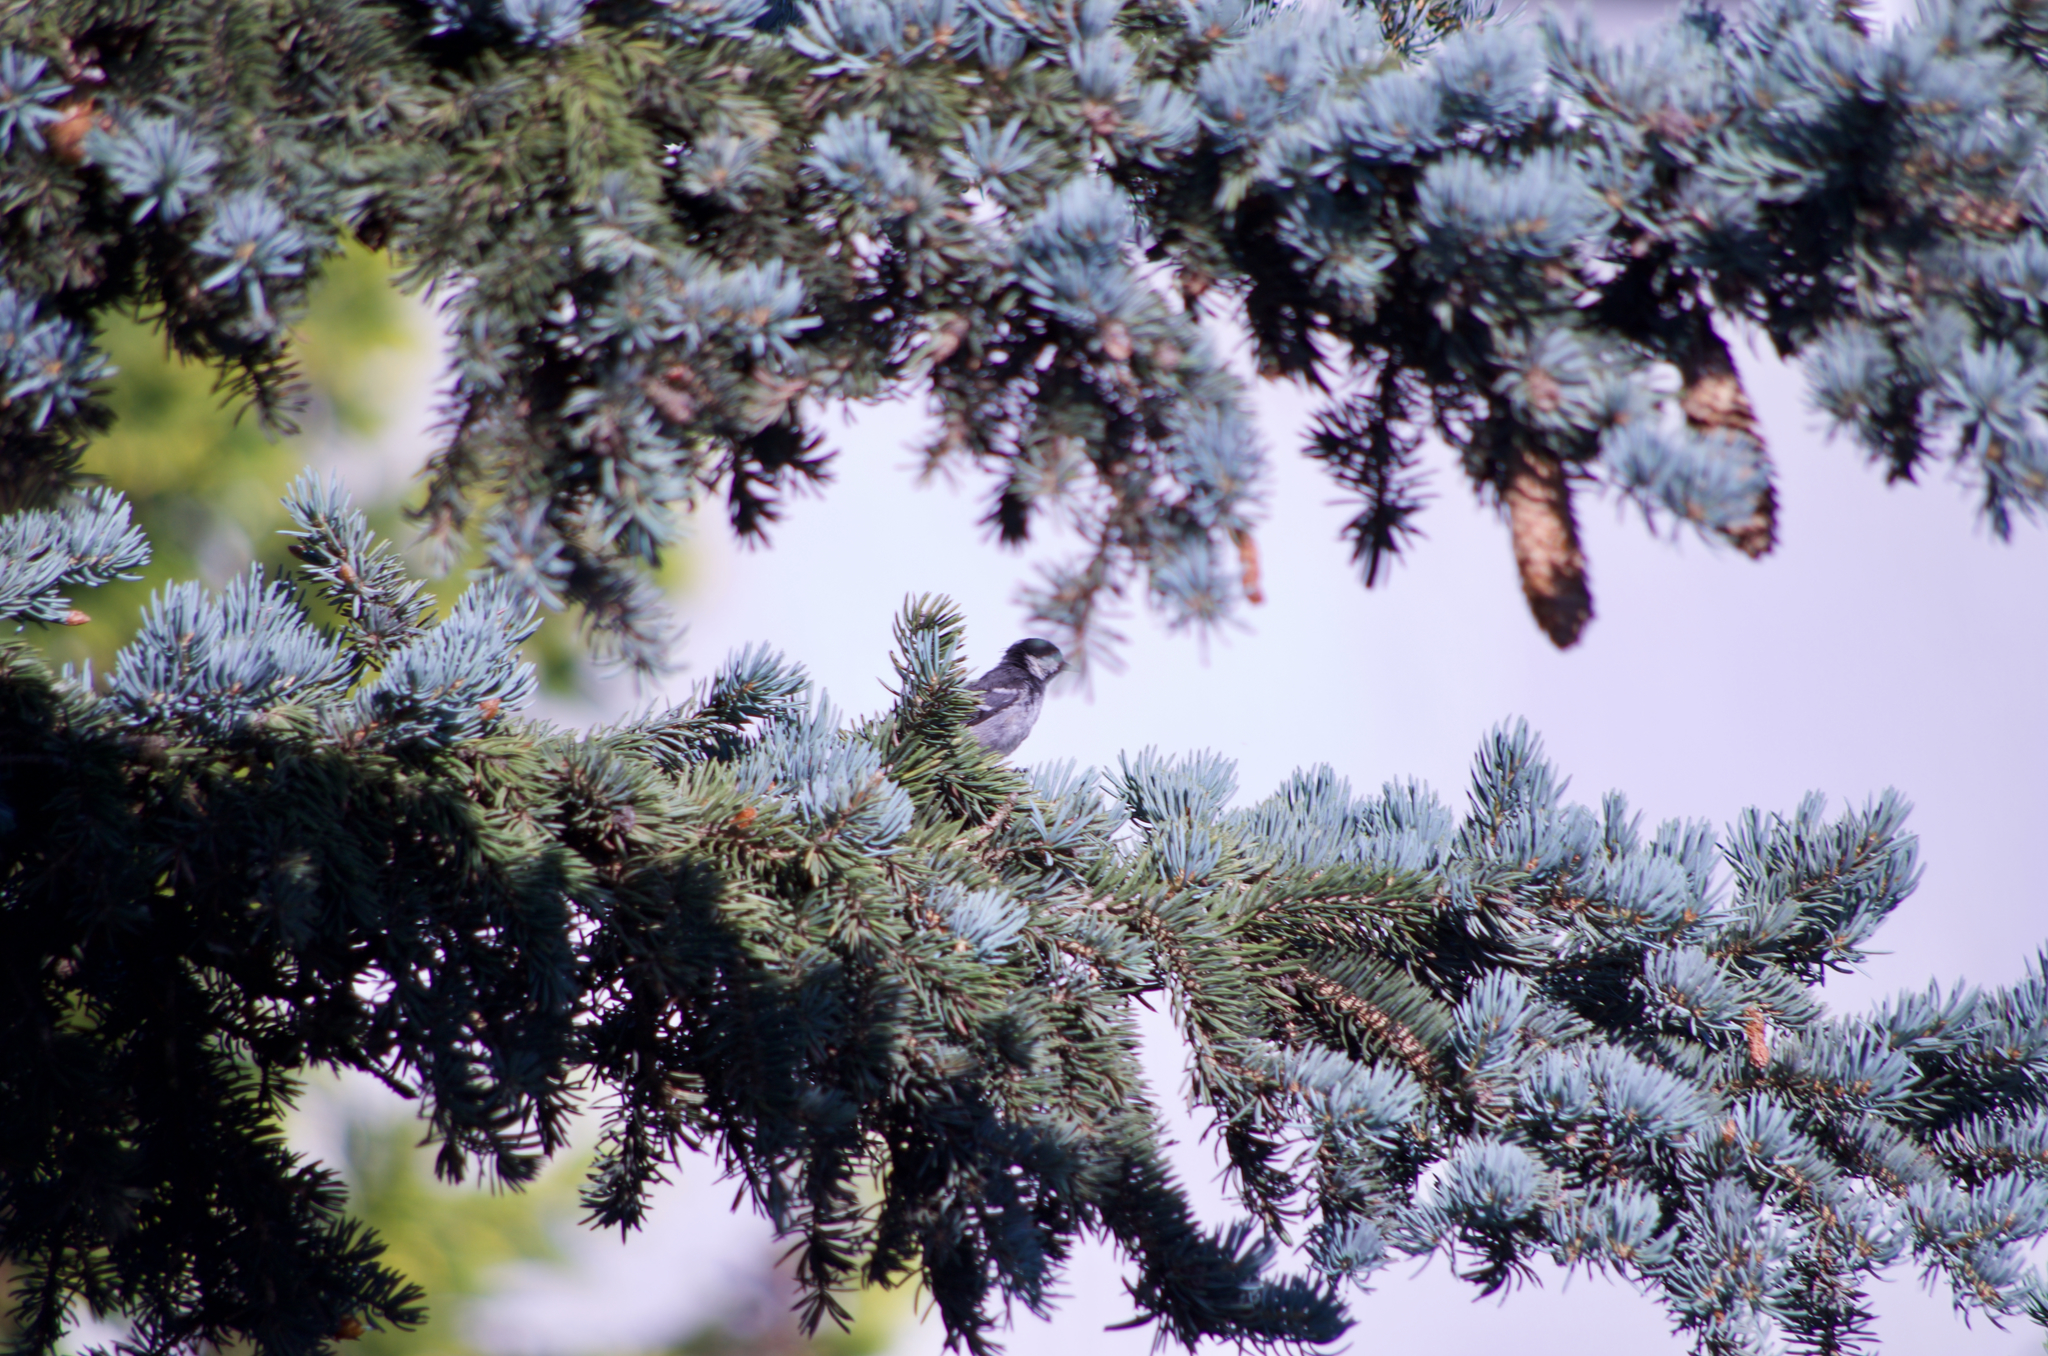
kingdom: Animalia
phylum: Chordata
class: Aves
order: Passeriformes
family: Paridae
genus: Periparus
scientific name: Periparus ater
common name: Coal tit
